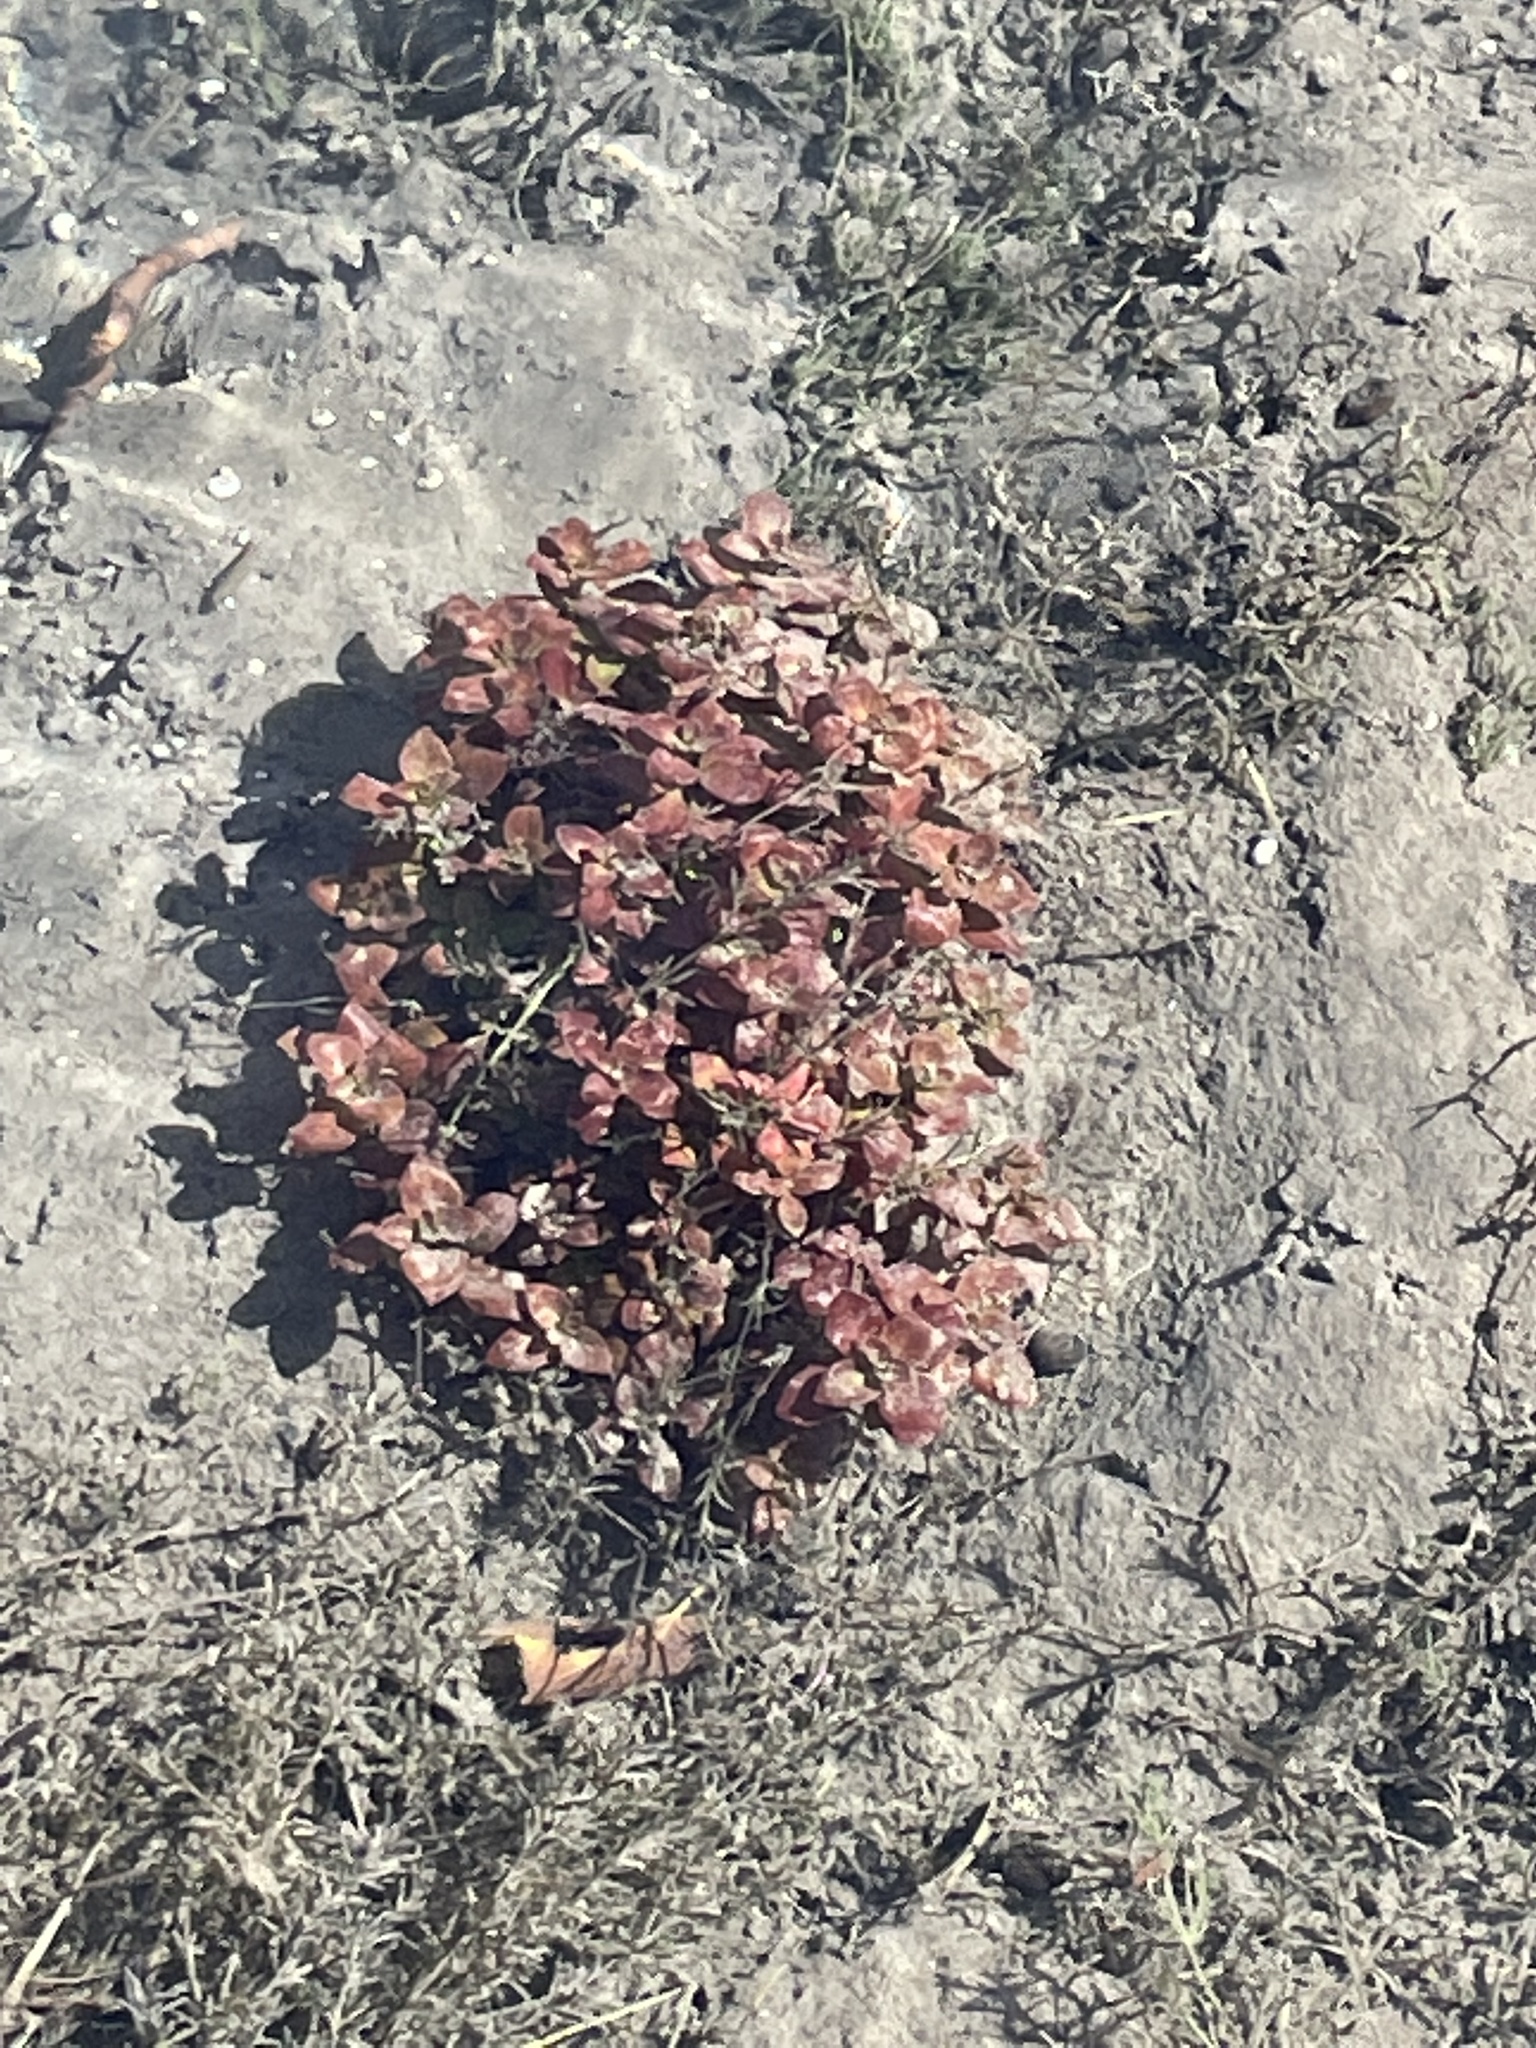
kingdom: Plantae
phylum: Tracheophyta
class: Magnoliopsida
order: Myrtales
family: Onagraceae
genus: Ludwigia
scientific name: Ludwigia repens
